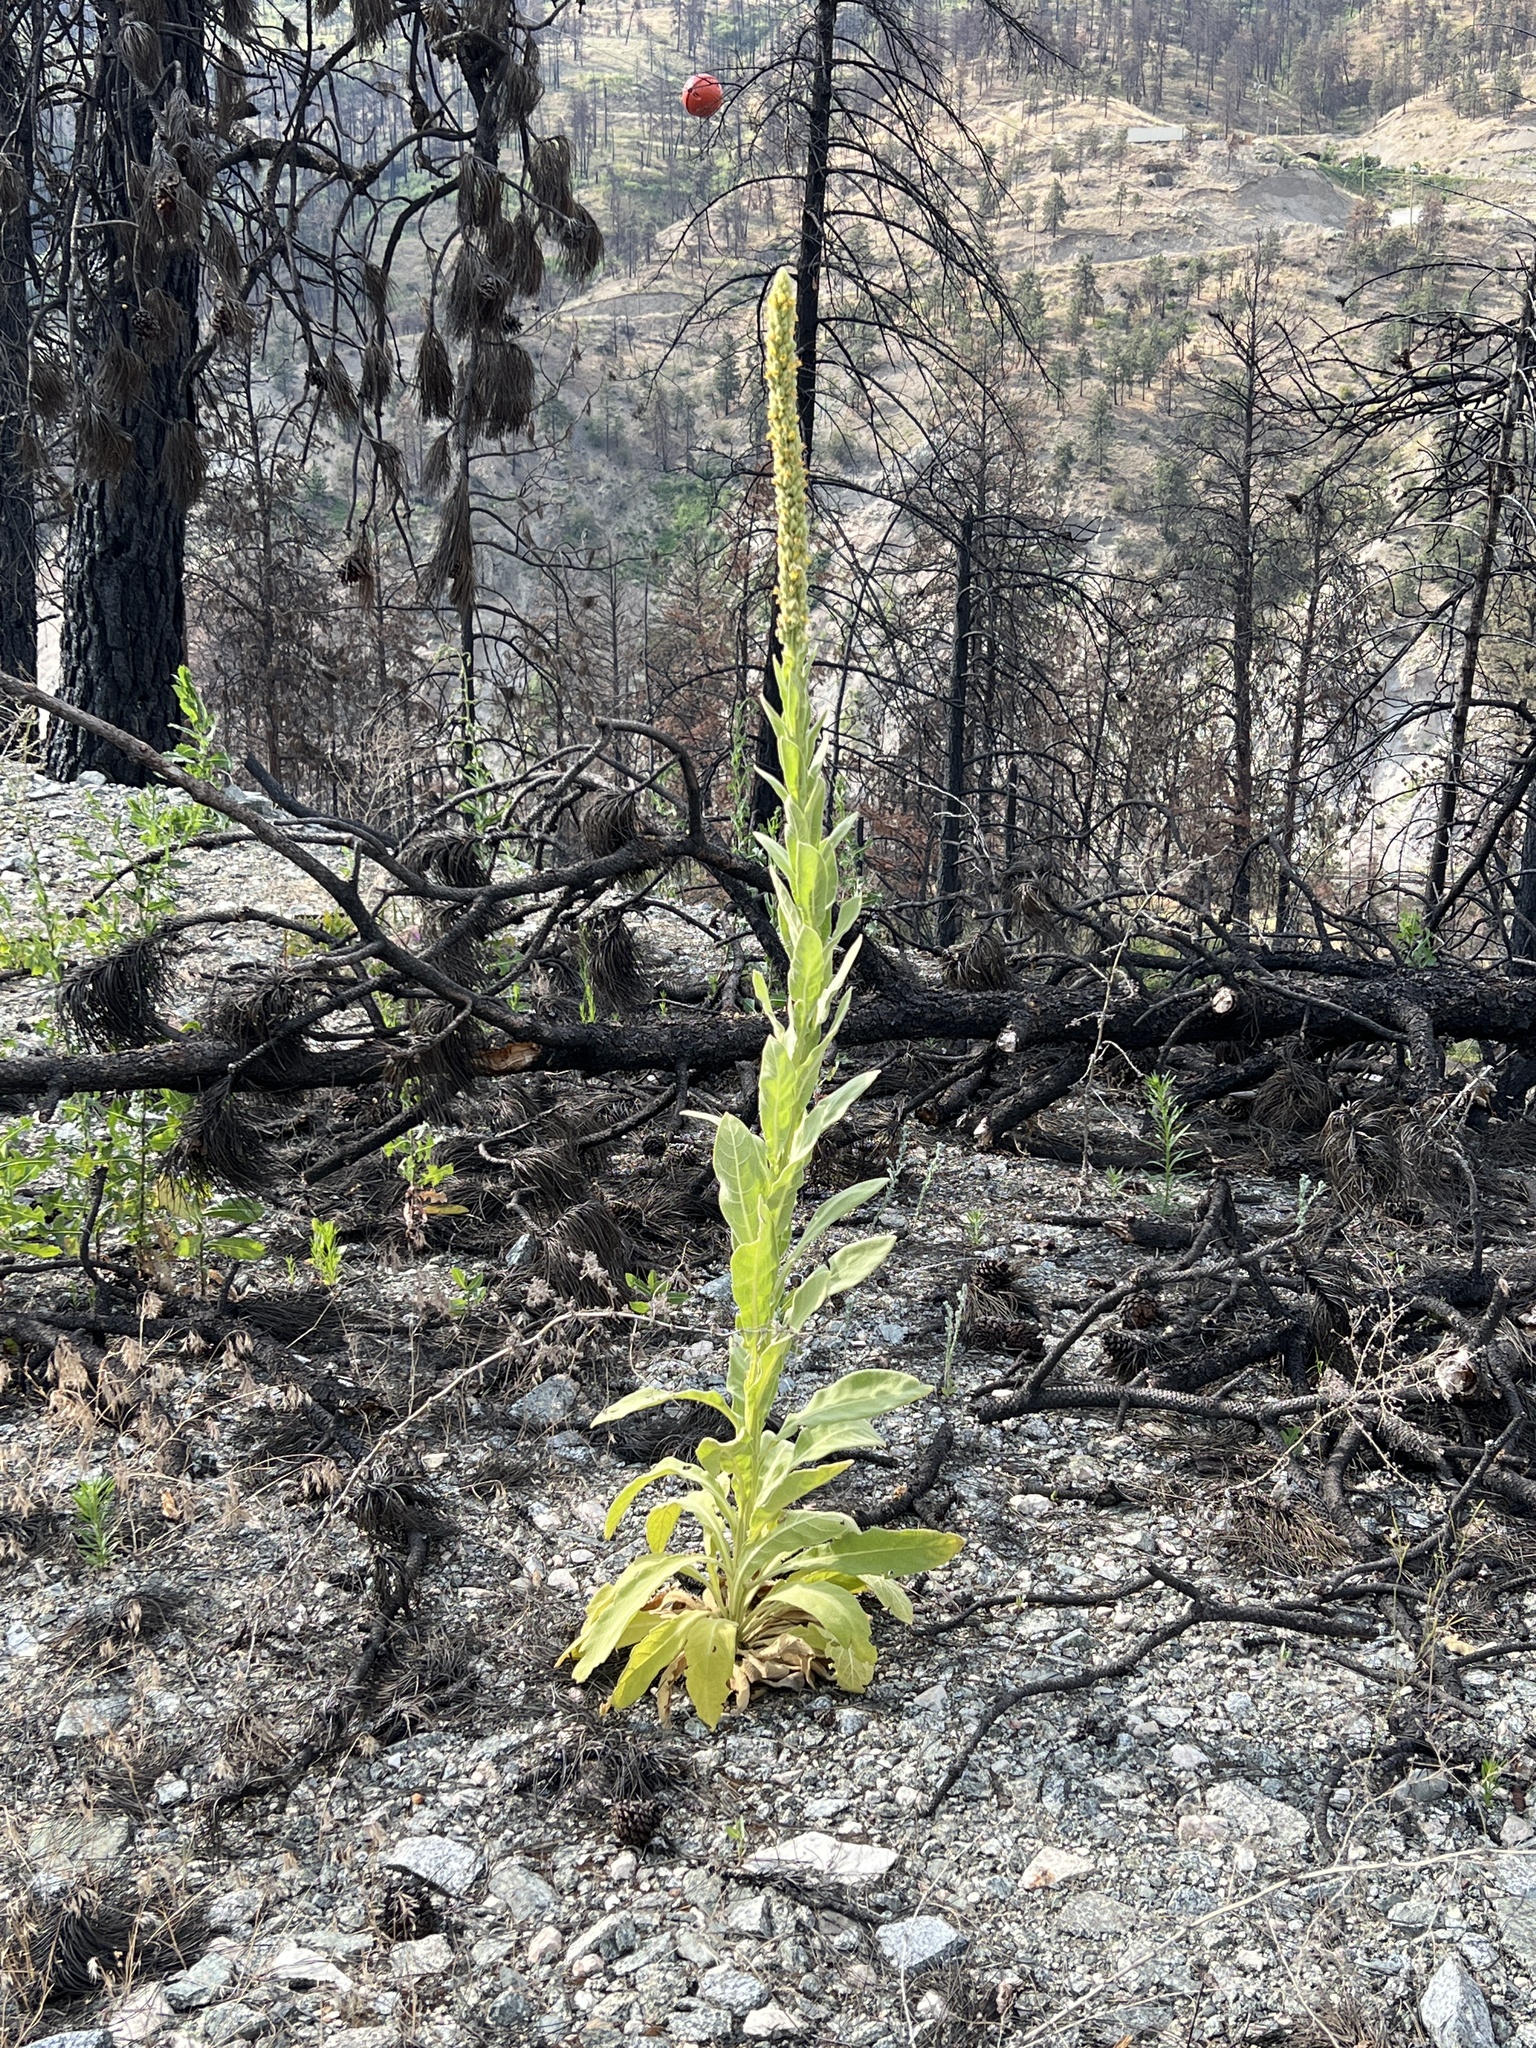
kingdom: Plantae
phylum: Tracheophyta
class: Magnoliopsida
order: Lamiales
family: Scrophulariaceae
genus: Verbascum
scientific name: Verbascum thapsus
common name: Common mullein
